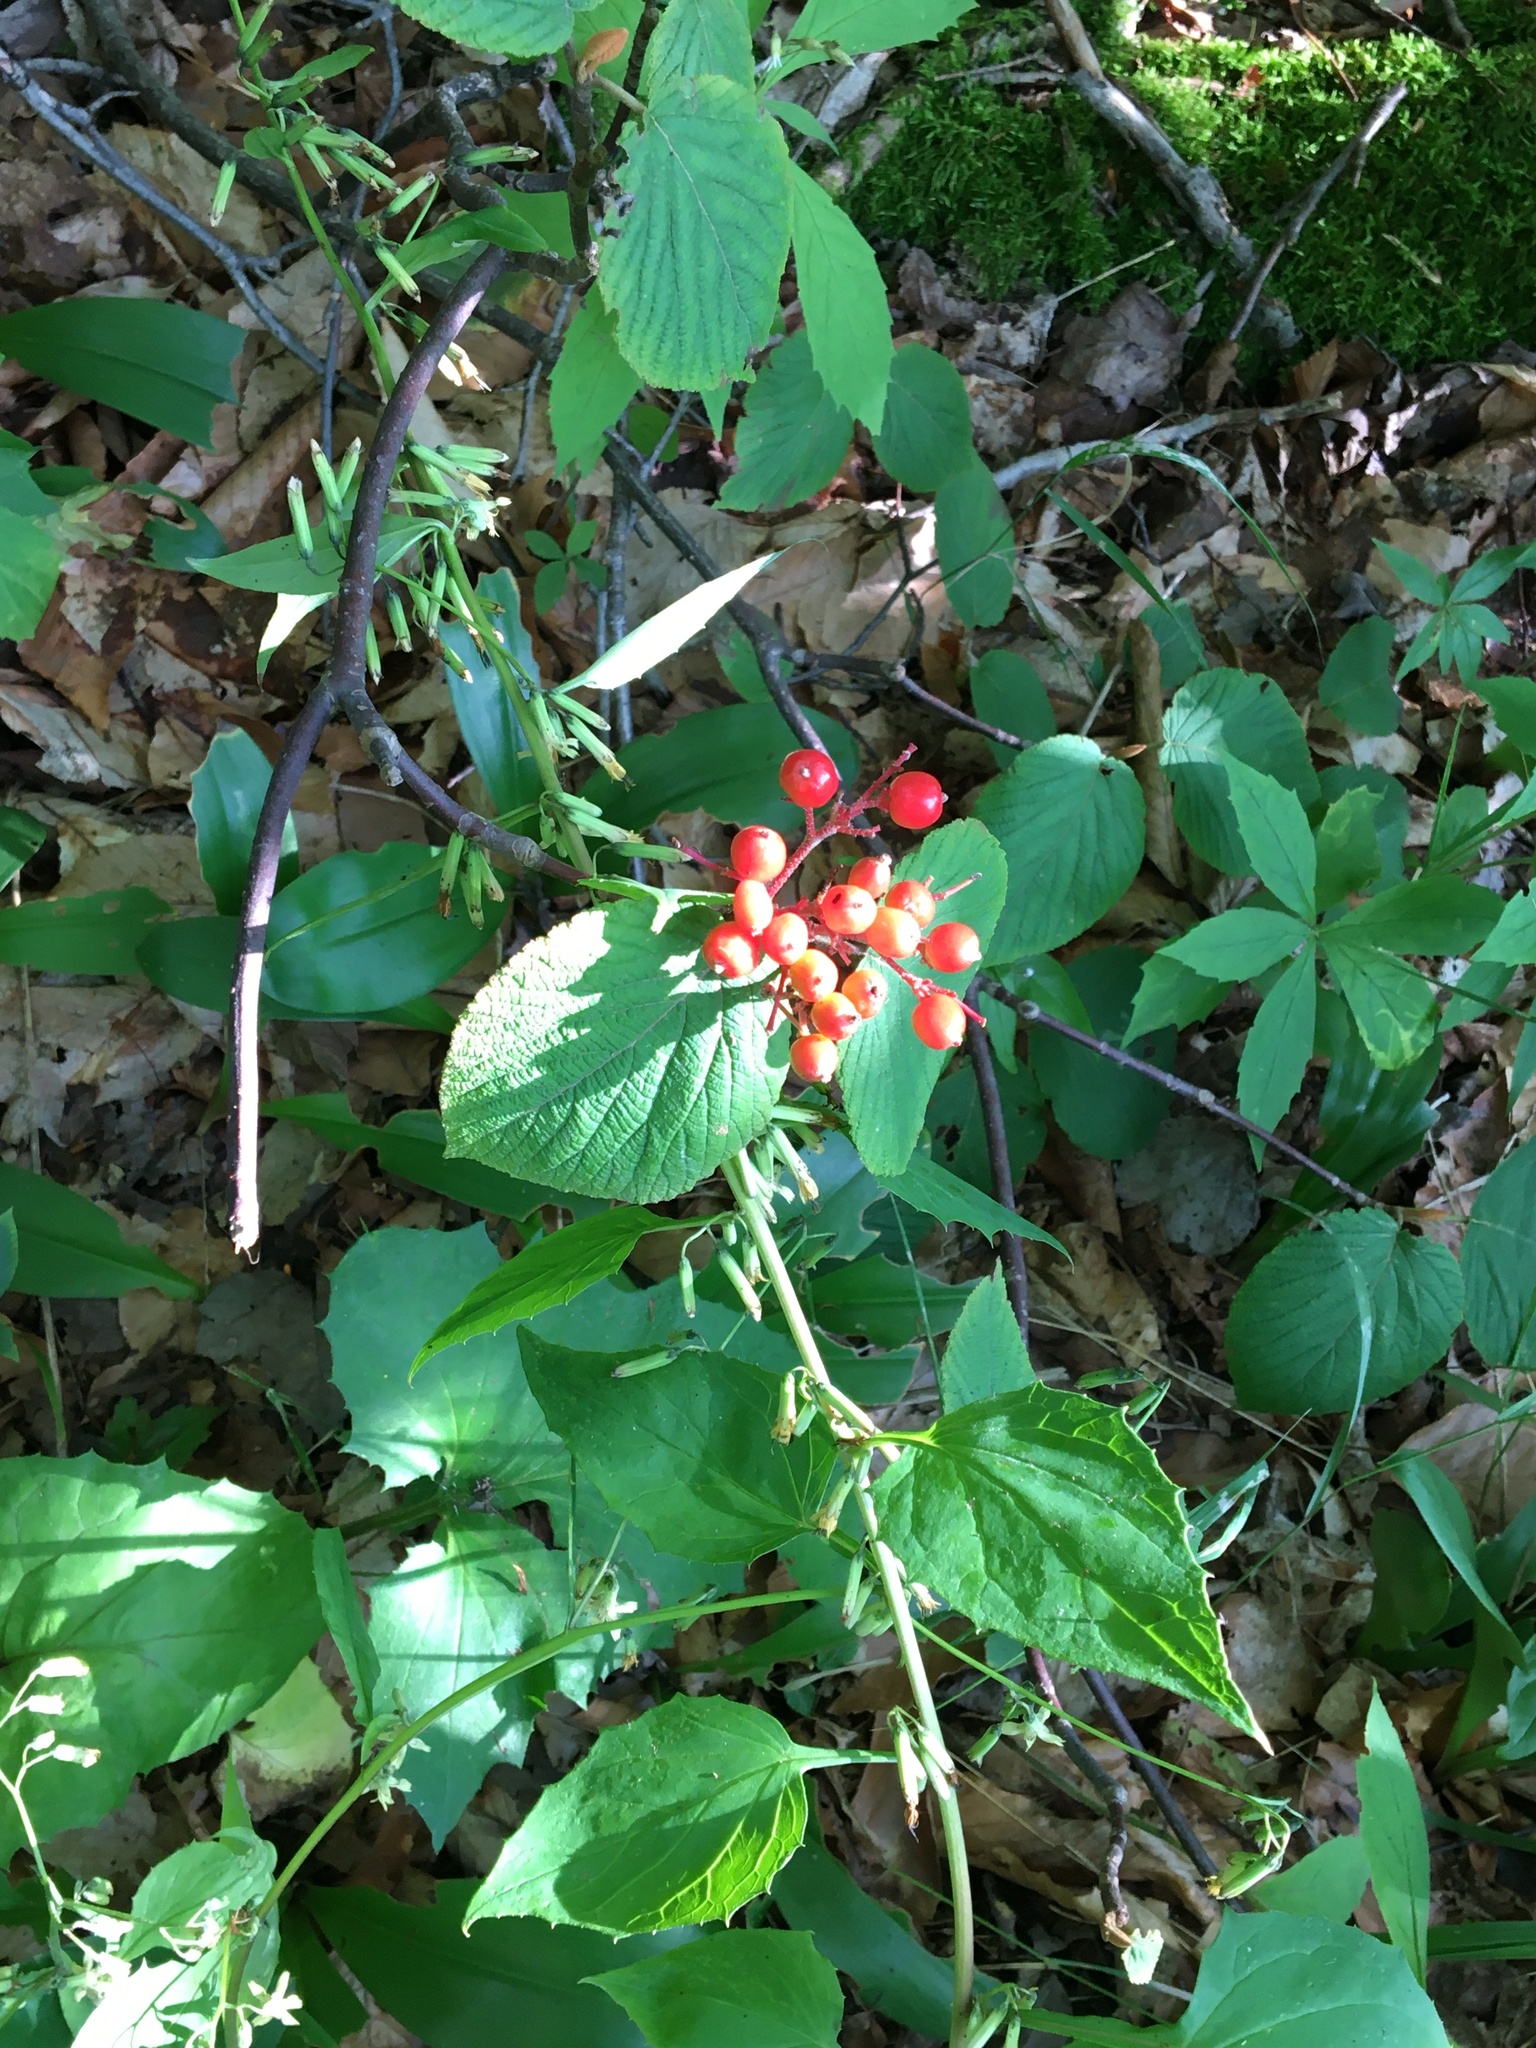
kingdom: Plantae
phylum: Tracheophyta
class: Magnoliopsida
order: Dipsacales
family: Viburnaceae
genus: Viburnum
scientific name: Viburnum lantanoides
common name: Hobblebush
